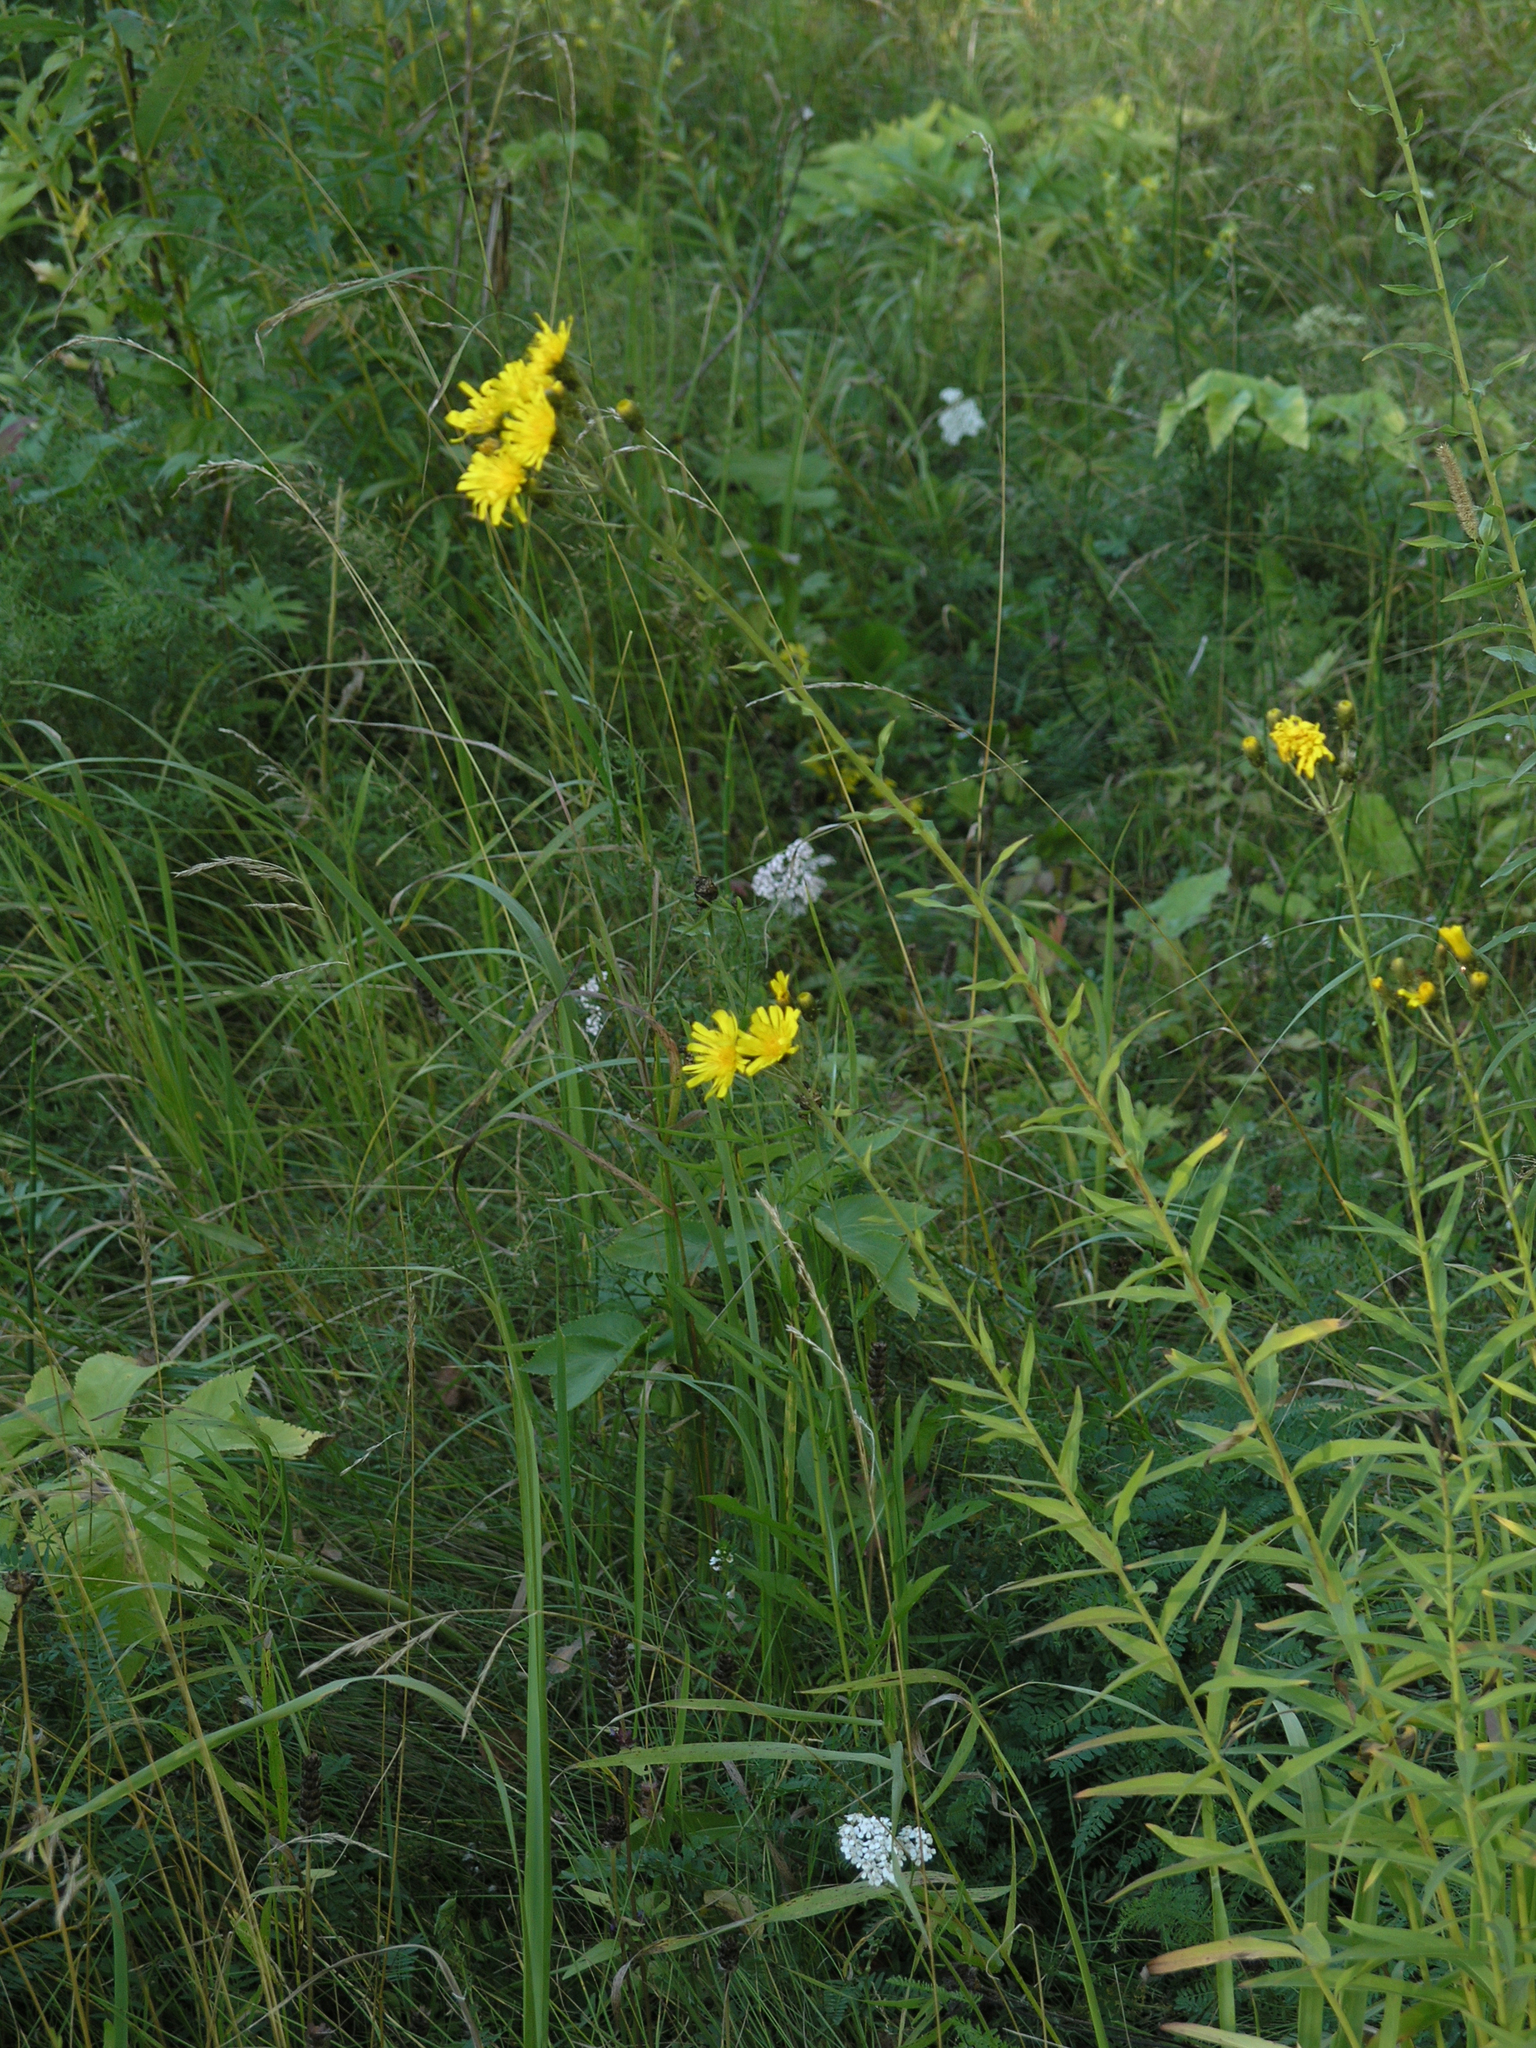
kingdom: Plantae
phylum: Tracheophyta
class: Magnoliopsida
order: Asterales
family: Asteraceae
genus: Hieracium
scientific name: Hieracium umbellatum
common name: Northern hawkweed
